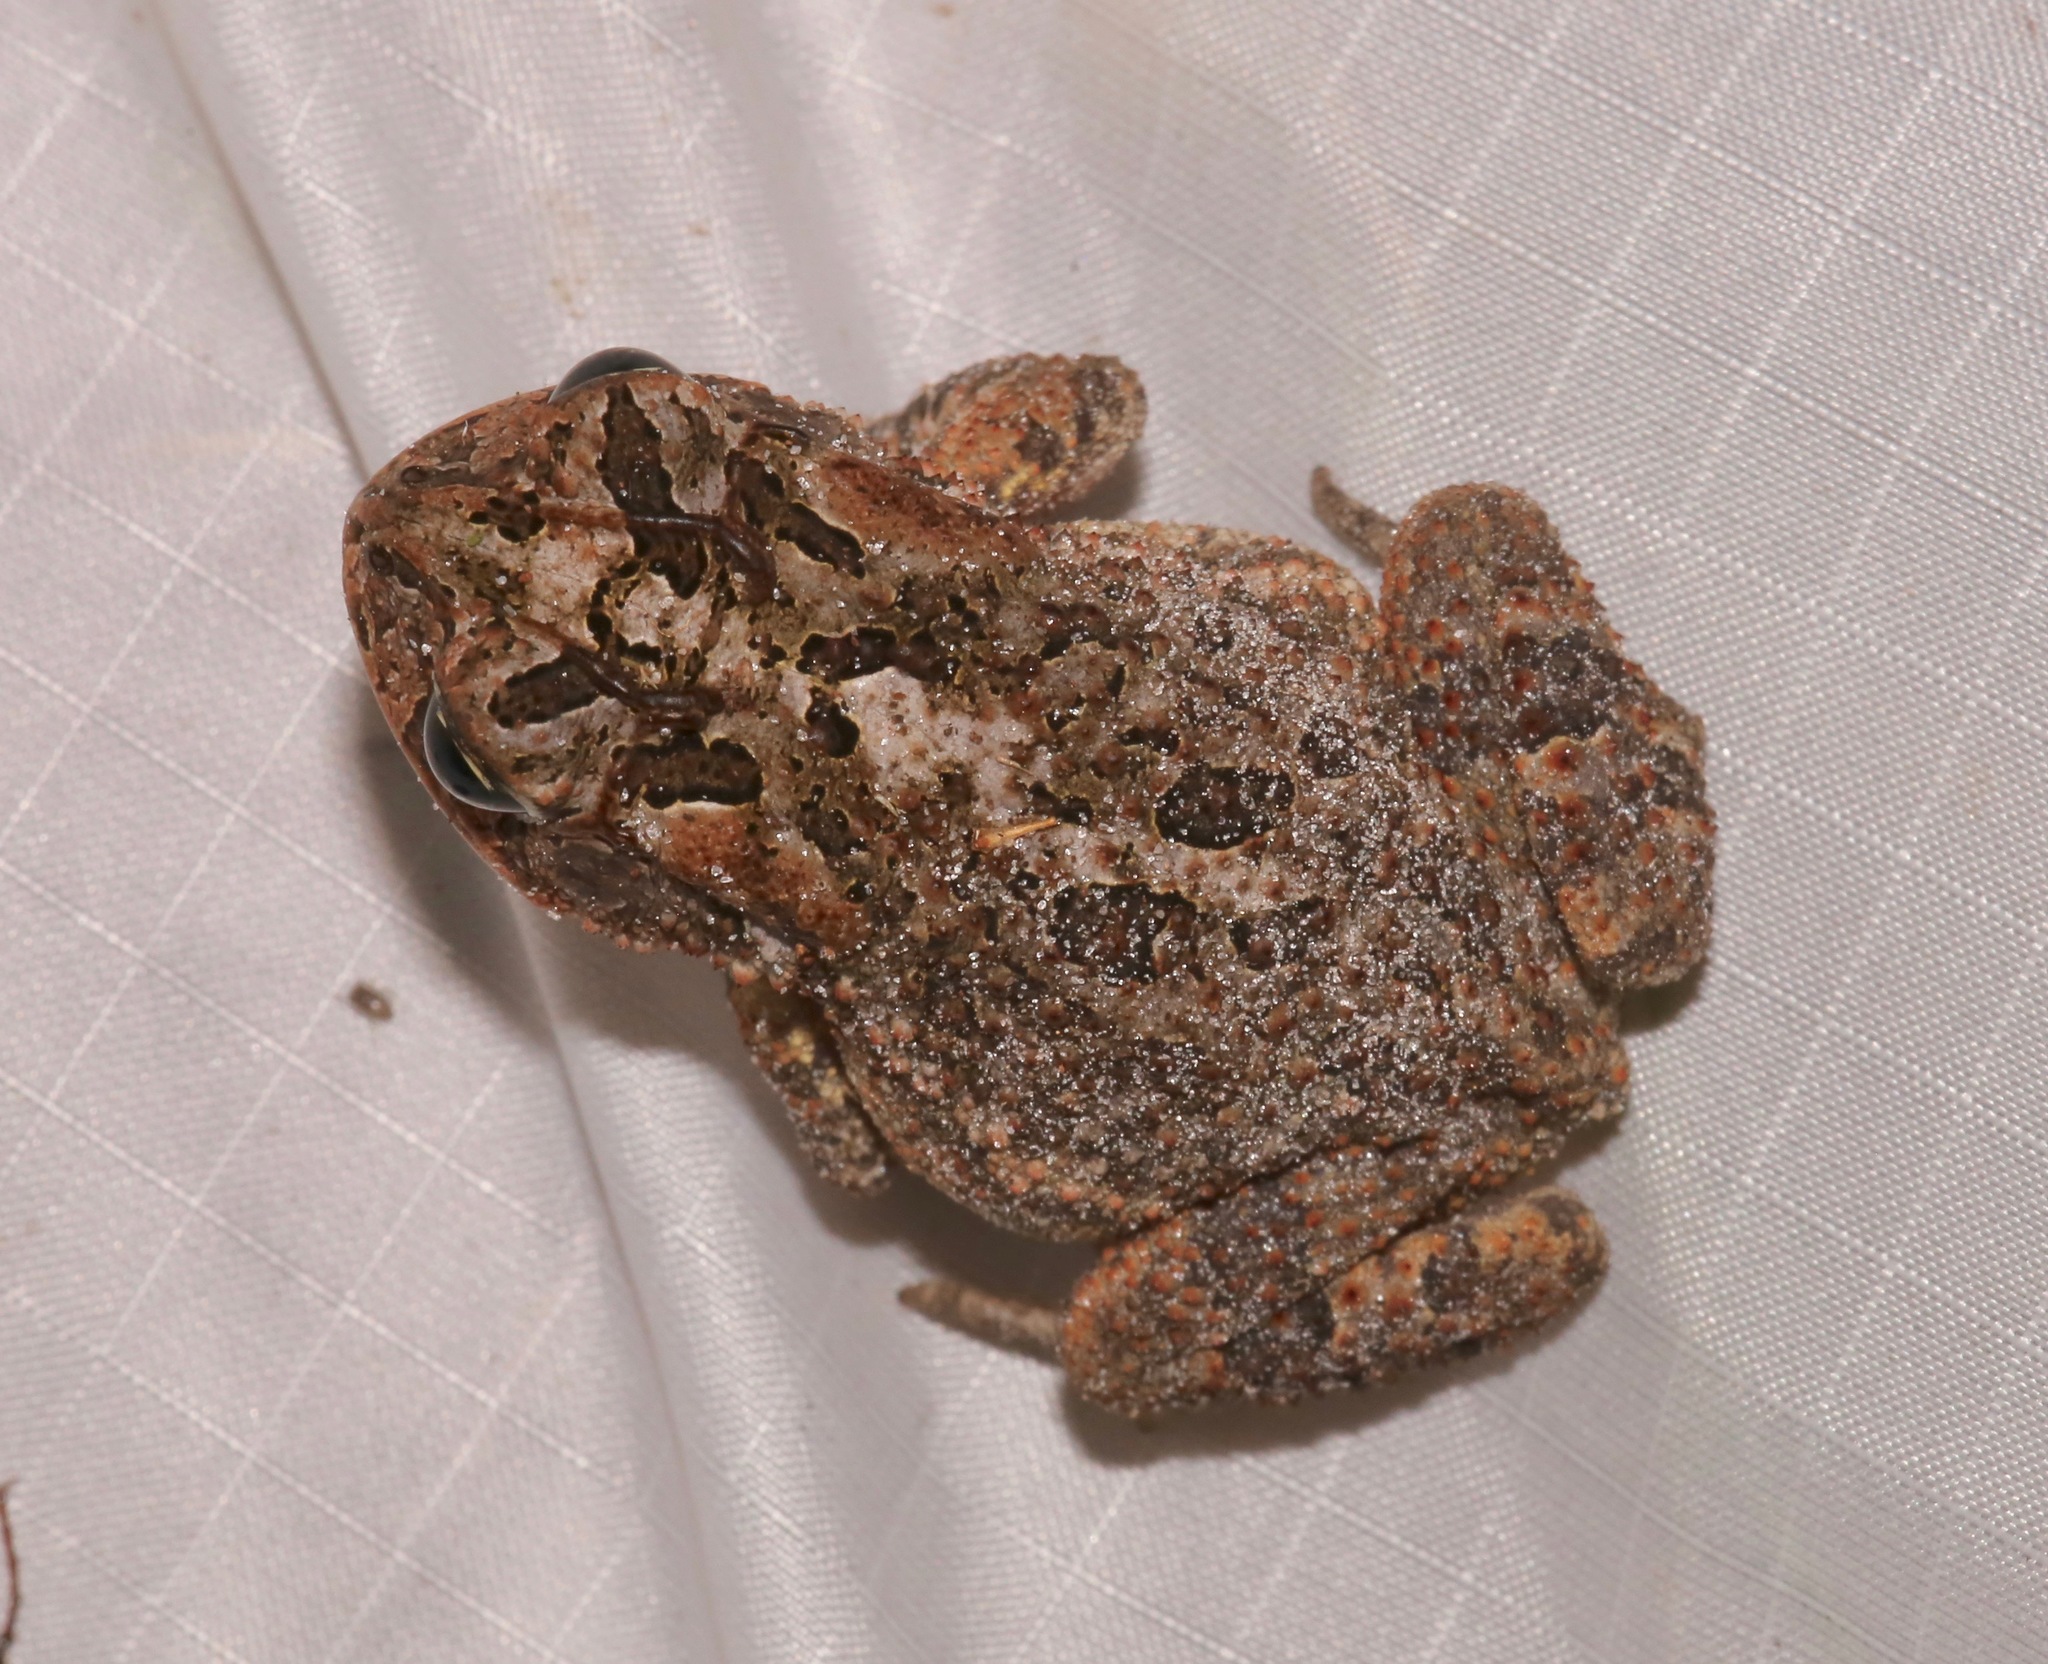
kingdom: Animalia
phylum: Chordata
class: Amphibia
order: Anura
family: Bufonidae
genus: Anaxyrus
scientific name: Anaxyrus terrestris
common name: Southern toad
